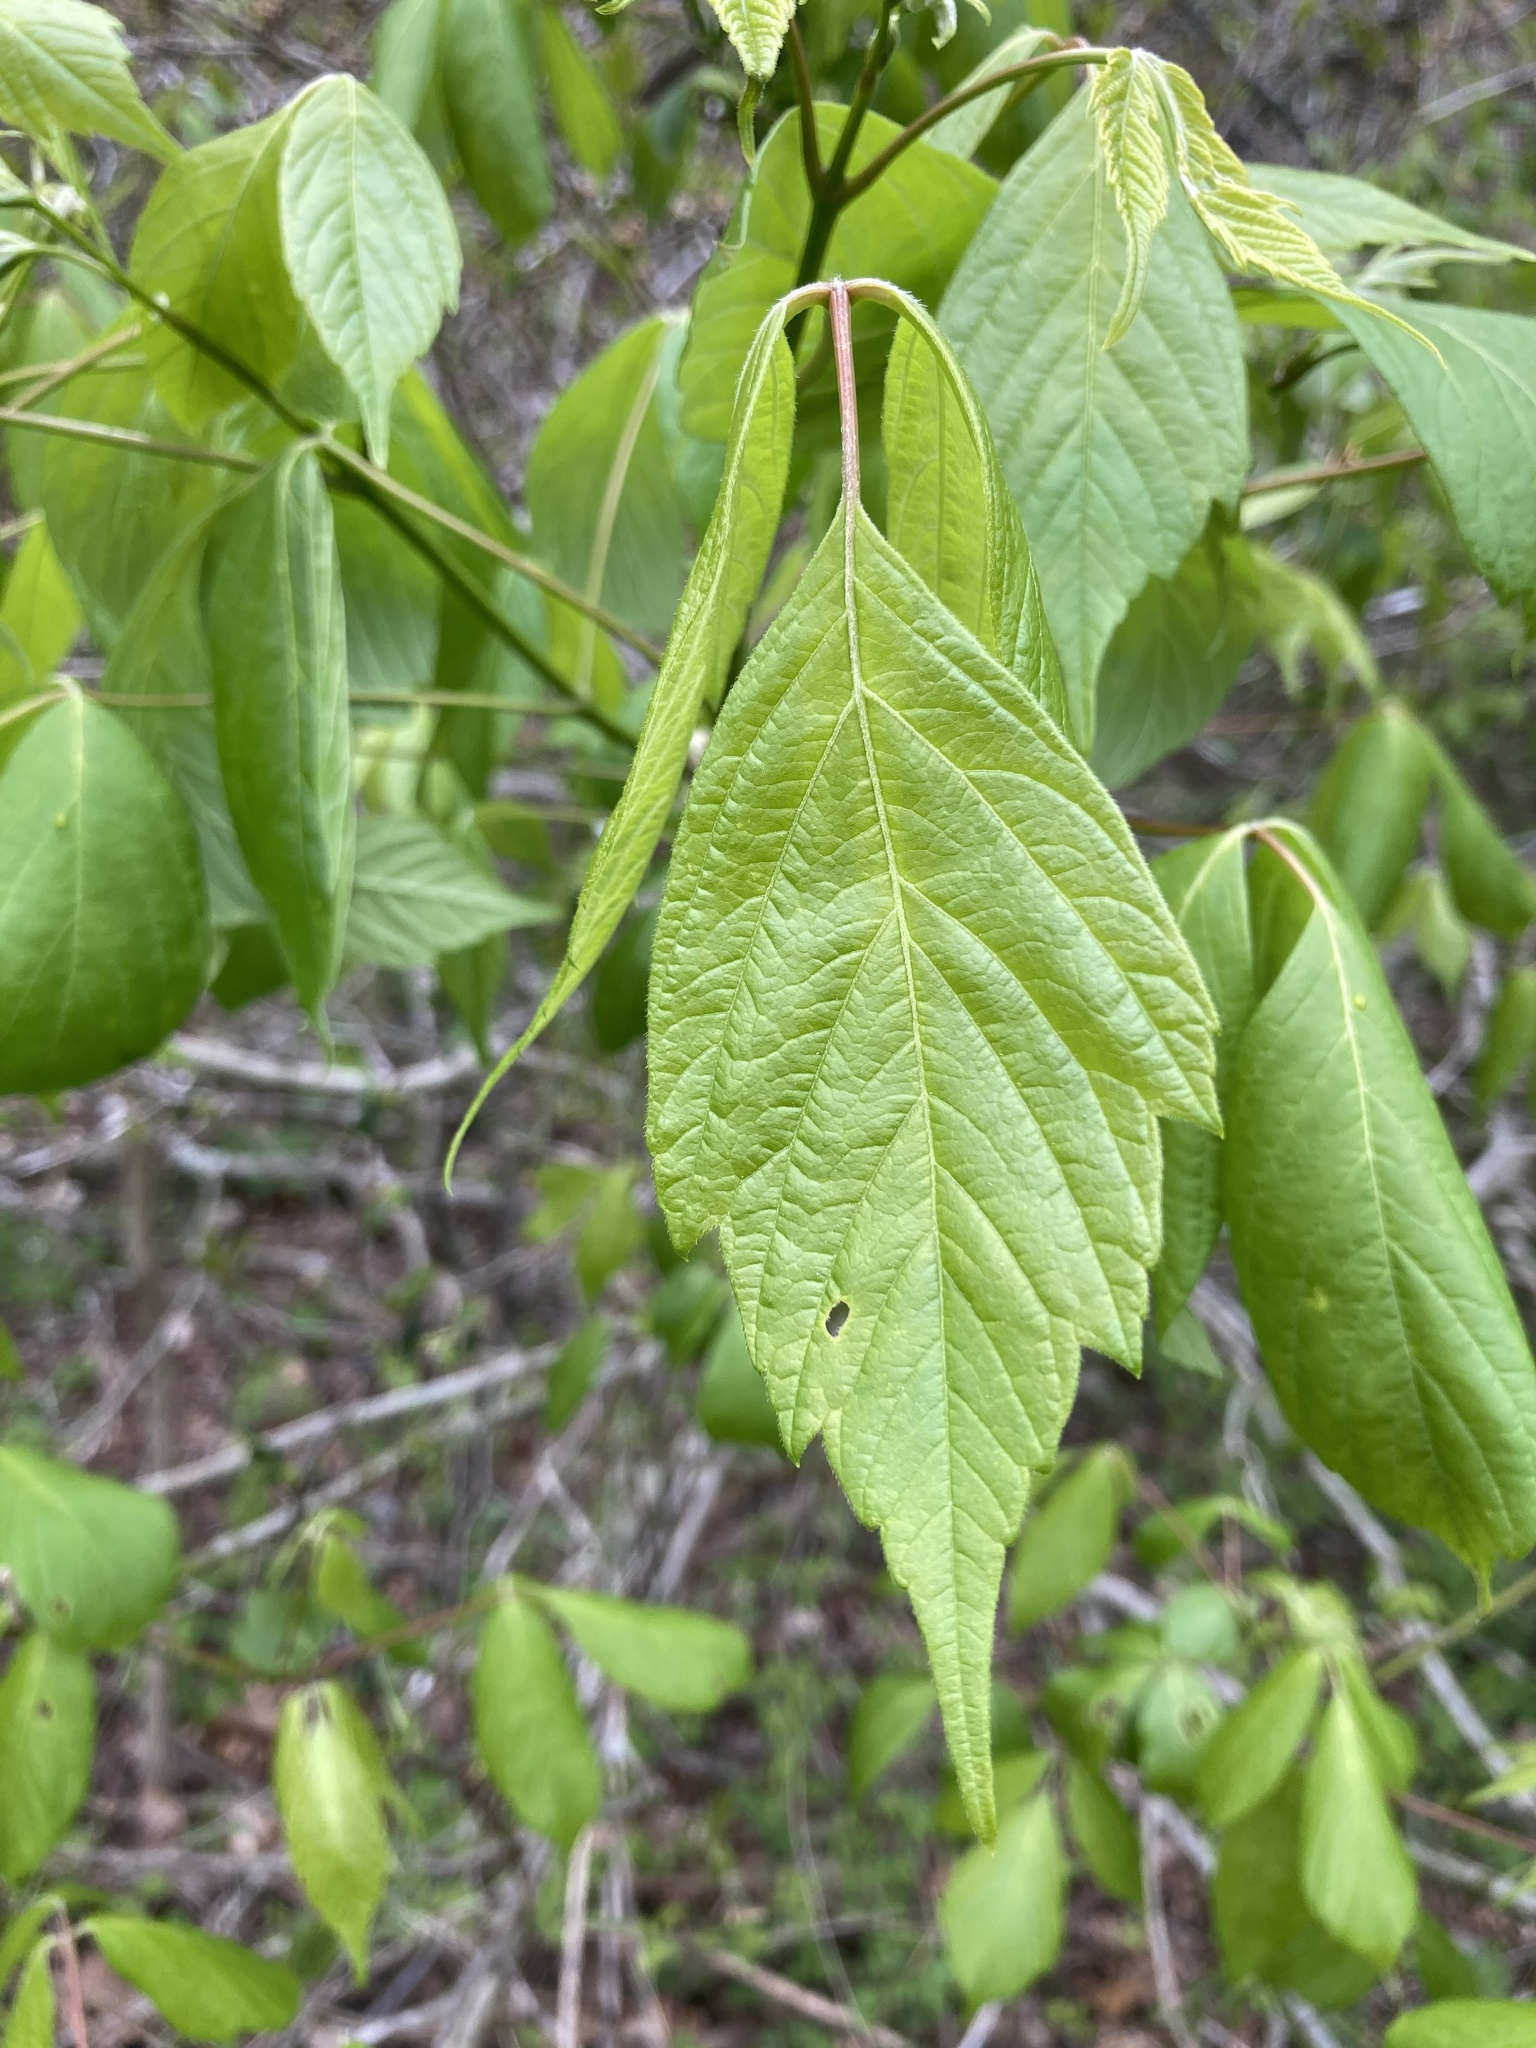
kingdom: Plantae
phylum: Tracheophyta
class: Magnoliopsida
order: Sapindales
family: Sapindaceae
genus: Acer
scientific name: Acer negundo
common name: Ashleaf maple
